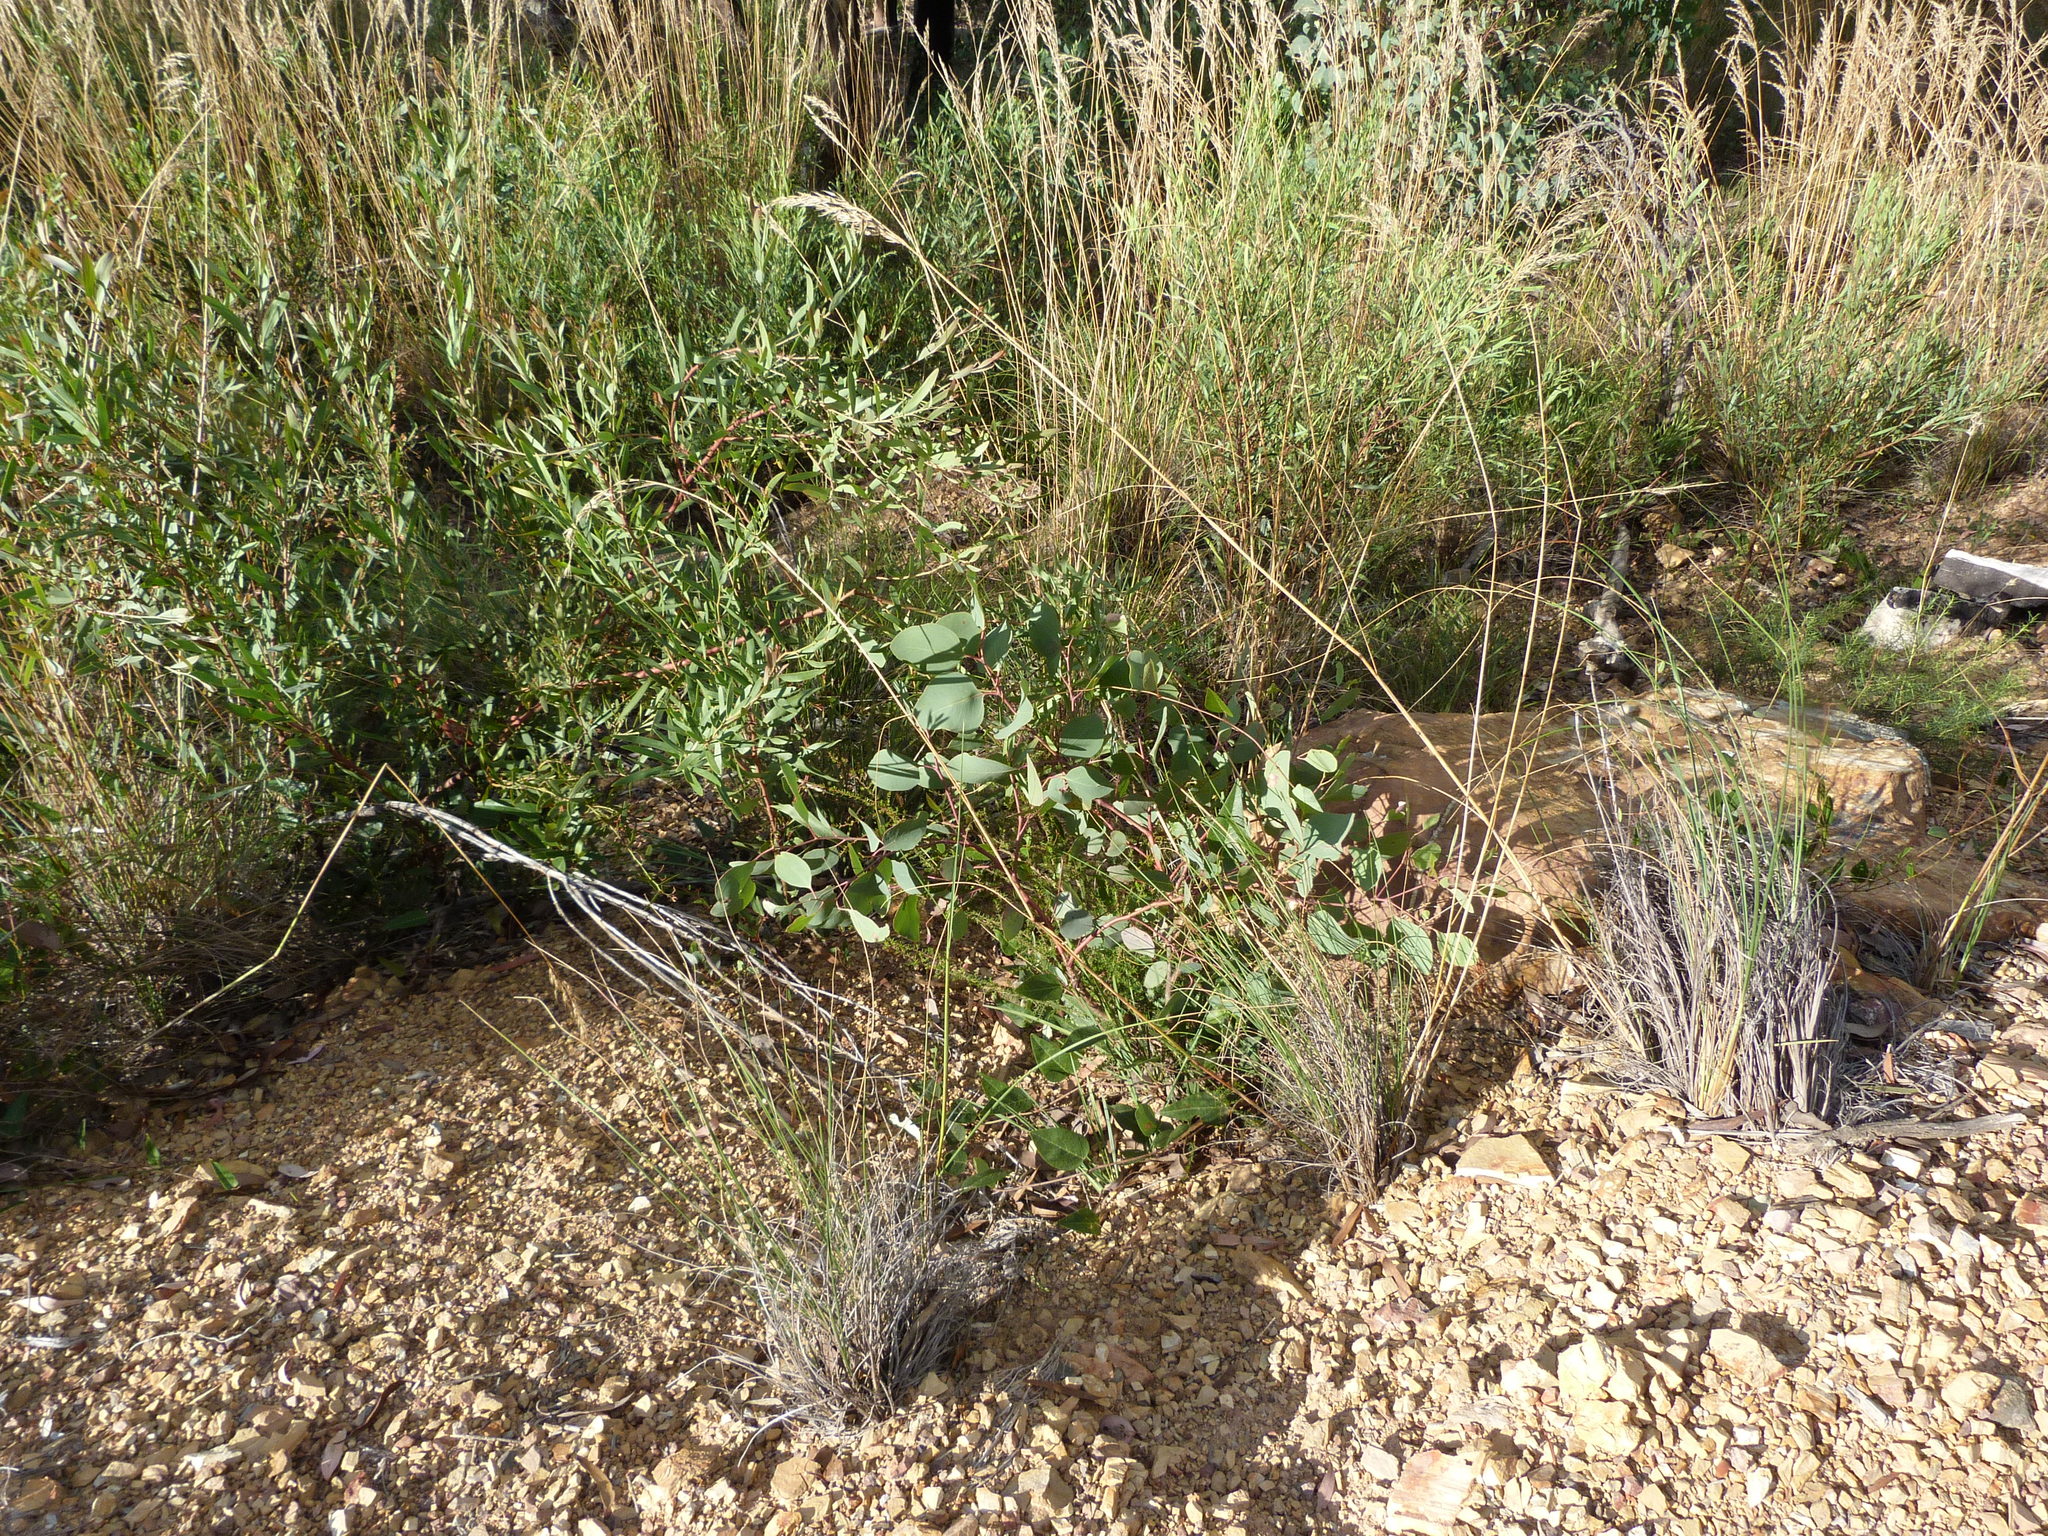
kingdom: Plantae
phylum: Tracheophyta
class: Magnoliopsida
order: Myrtales
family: Myrtaceae
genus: Eucalyptus
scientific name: Eucalyptus polyanthemos
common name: Red-box
